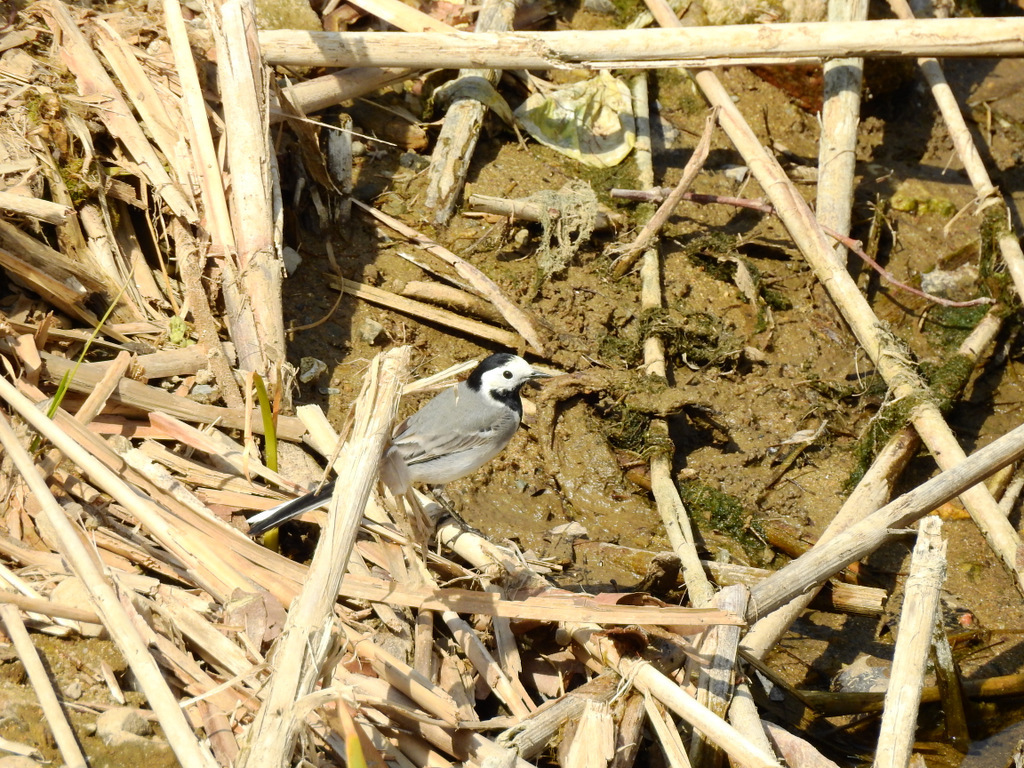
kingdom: Animalia
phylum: Chordata
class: Aves
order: Passeriformes
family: Motacillidae
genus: Motacilla
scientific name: Motacilla alba
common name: White wagtail
